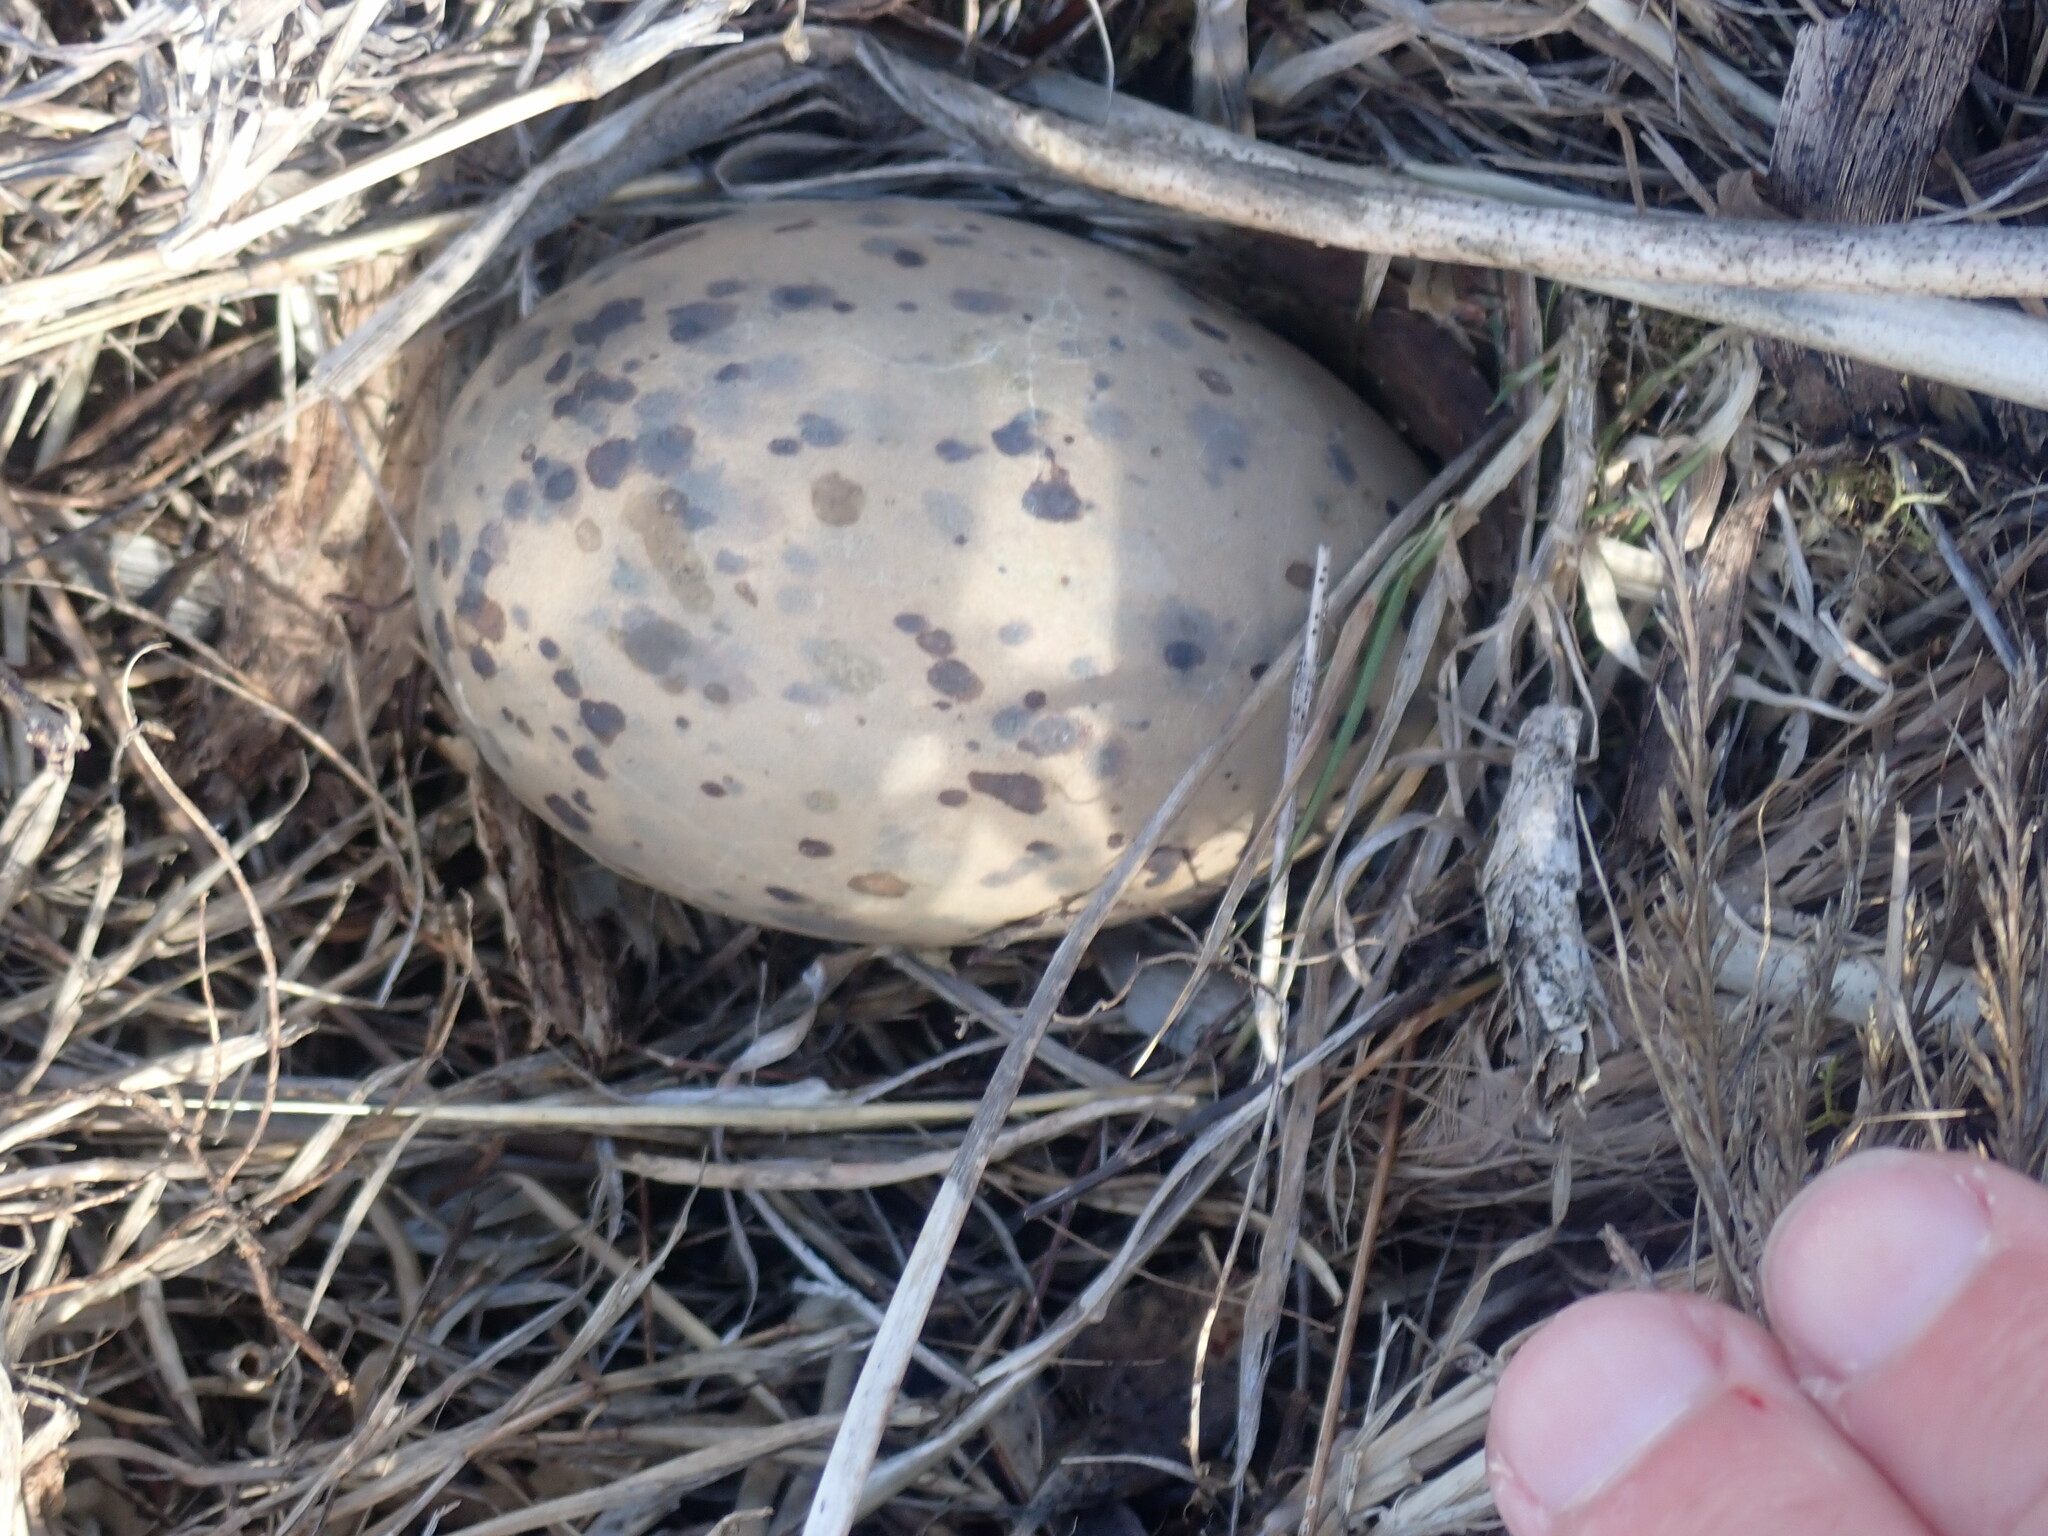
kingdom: Animalia
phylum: Chordata
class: Aves
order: Charadriiformes
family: Laridae
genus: Larus
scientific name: Larus dominicanus
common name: Kelp gull
